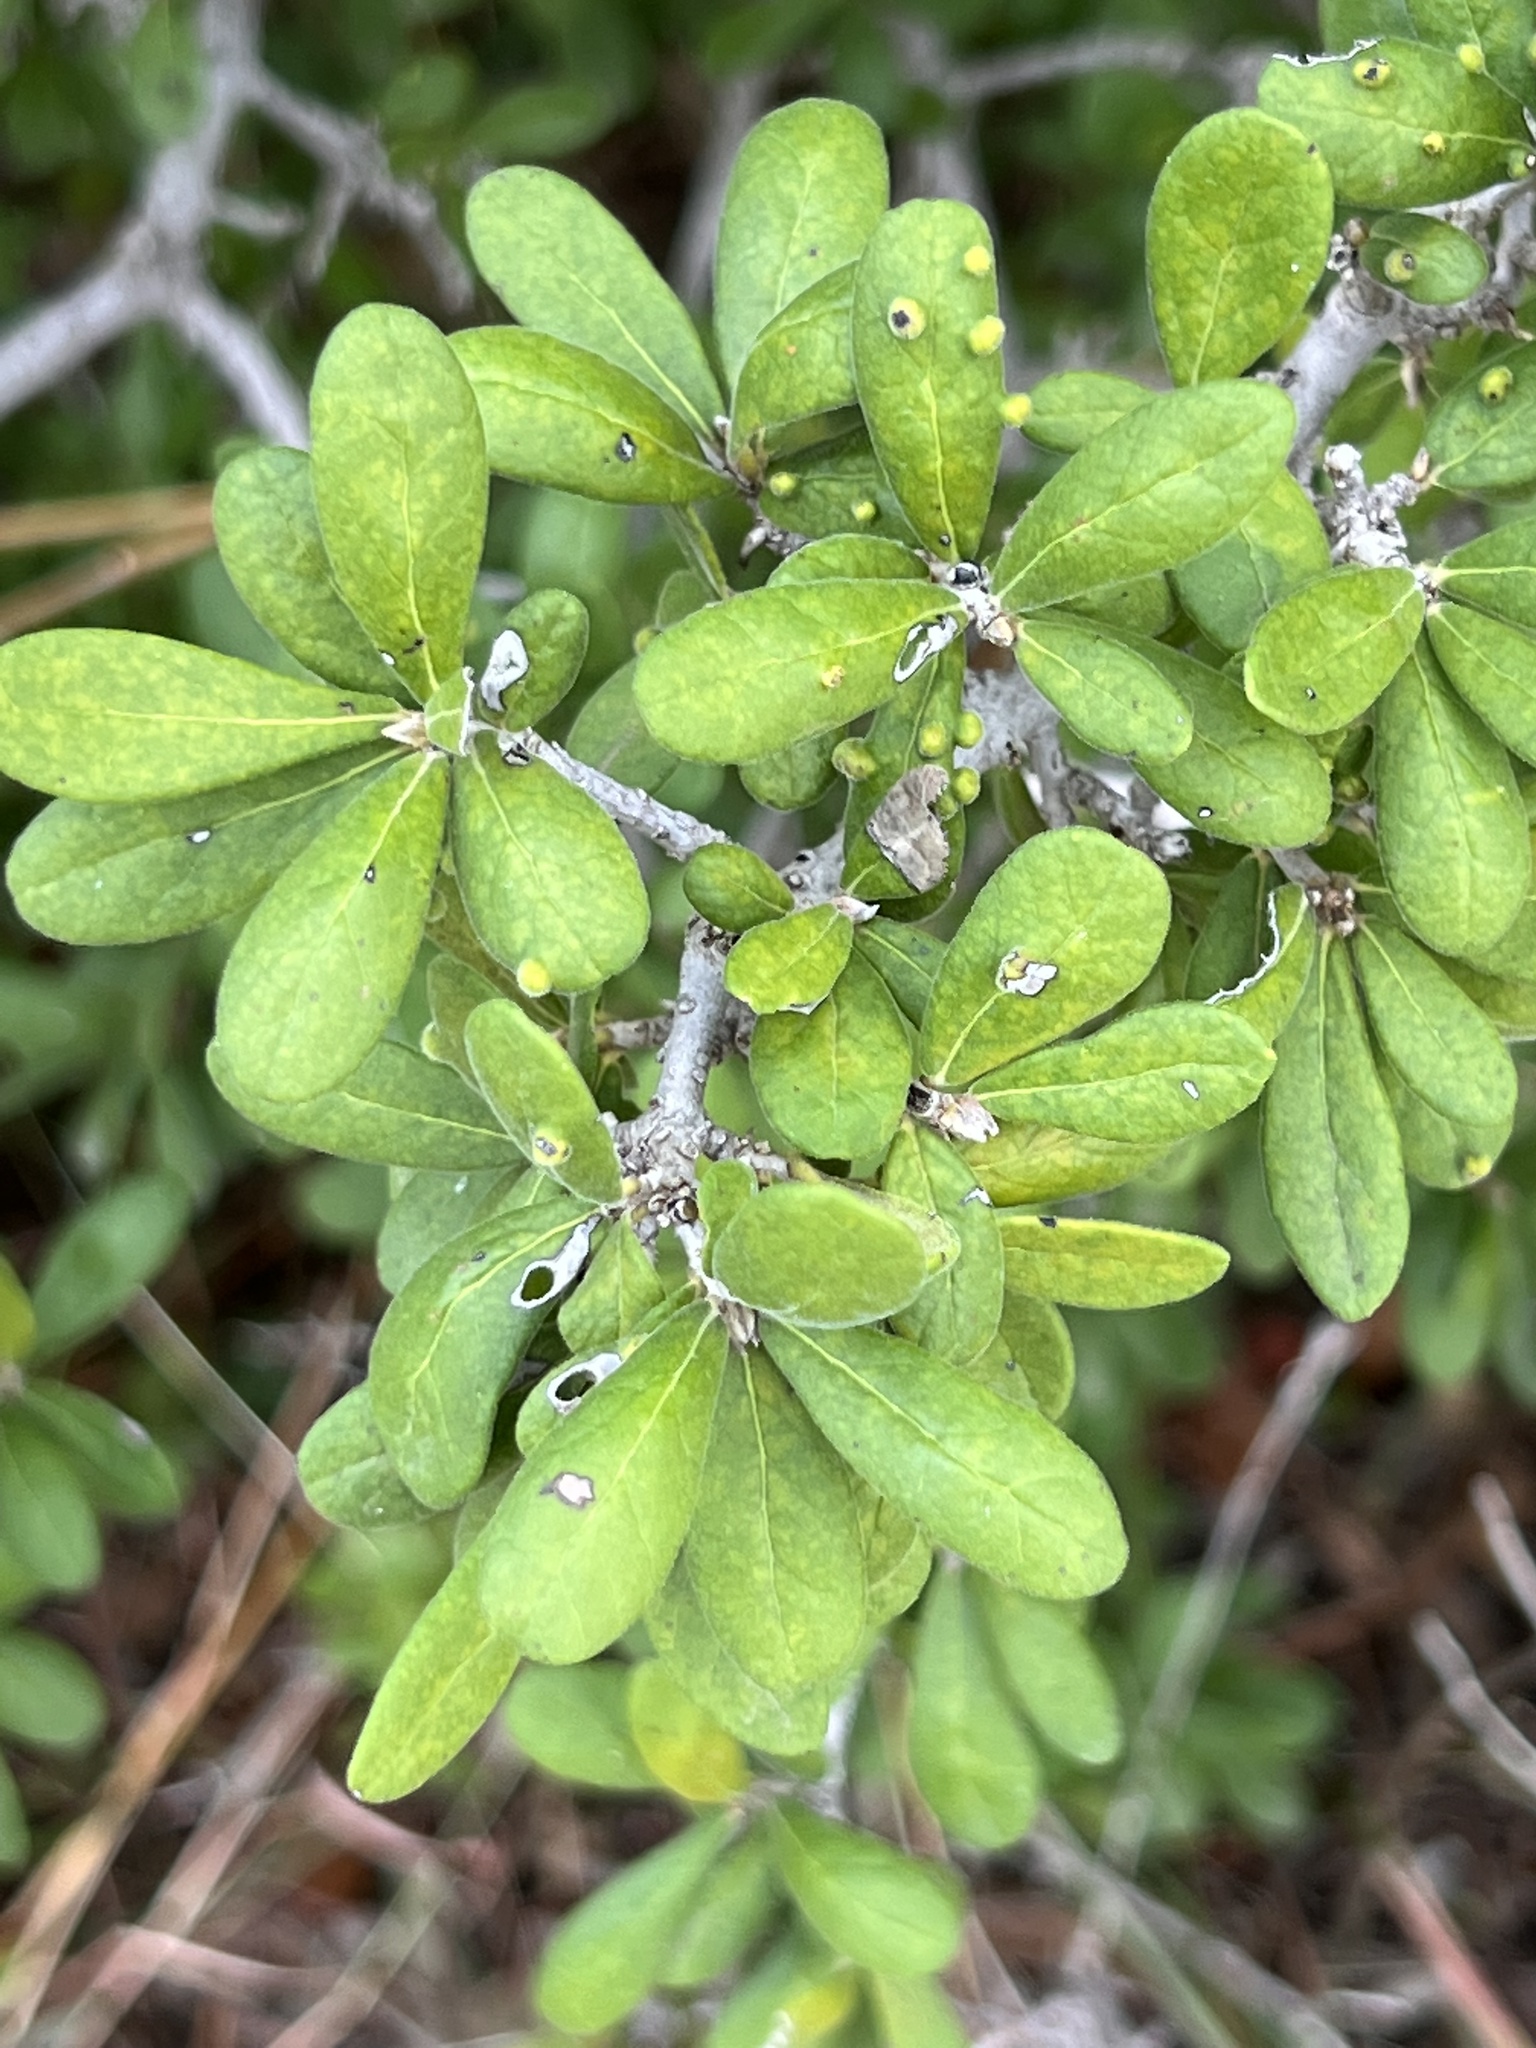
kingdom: Plantae
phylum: Tracheophyta
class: Magnoliopsida
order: Ericales
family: Ebenaceae
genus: Diospyros
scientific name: Diospyros texana
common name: Texas persimmon
